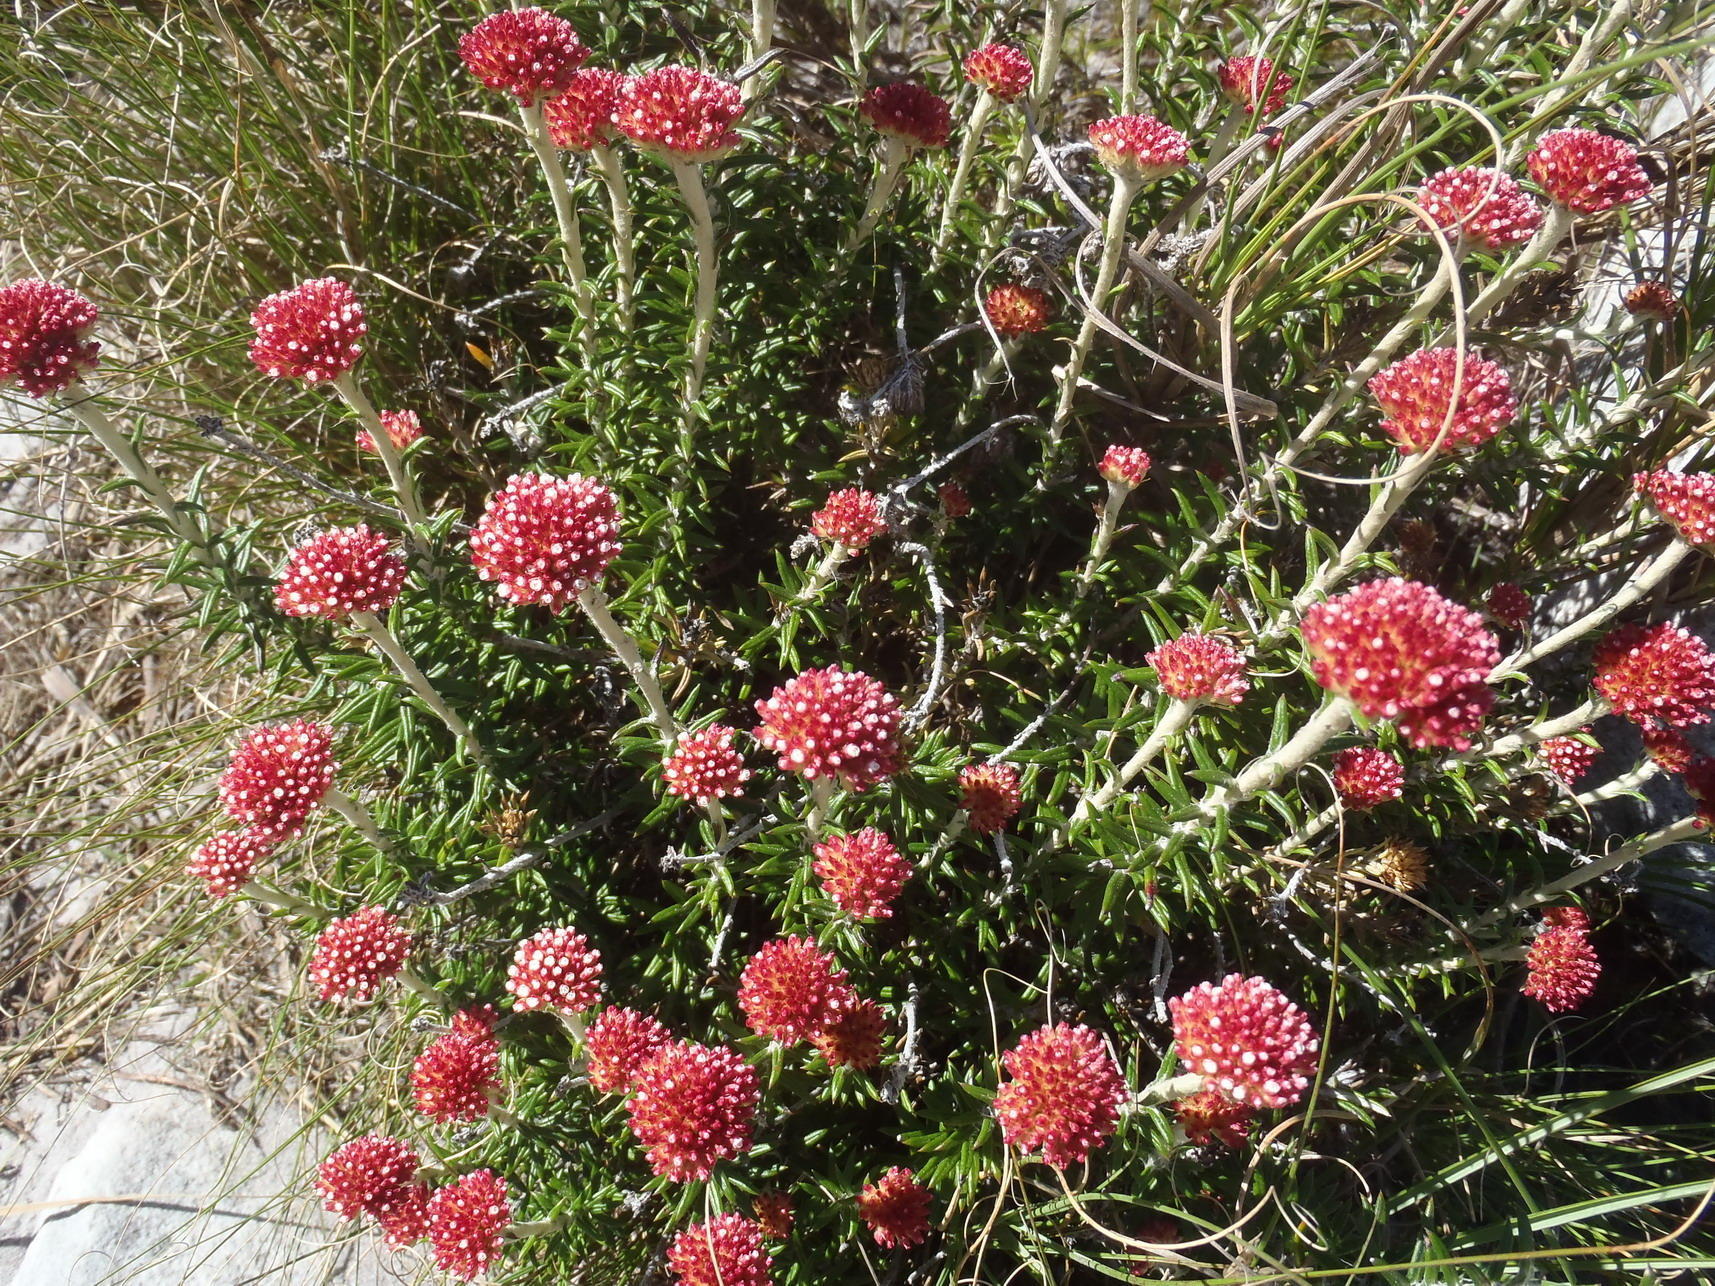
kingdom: Plantae
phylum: Tracheophyta
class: Magnoliopsida
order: Asterales
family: Asteraceae
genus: Anaxeton
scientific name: Anaxeton arborescens
